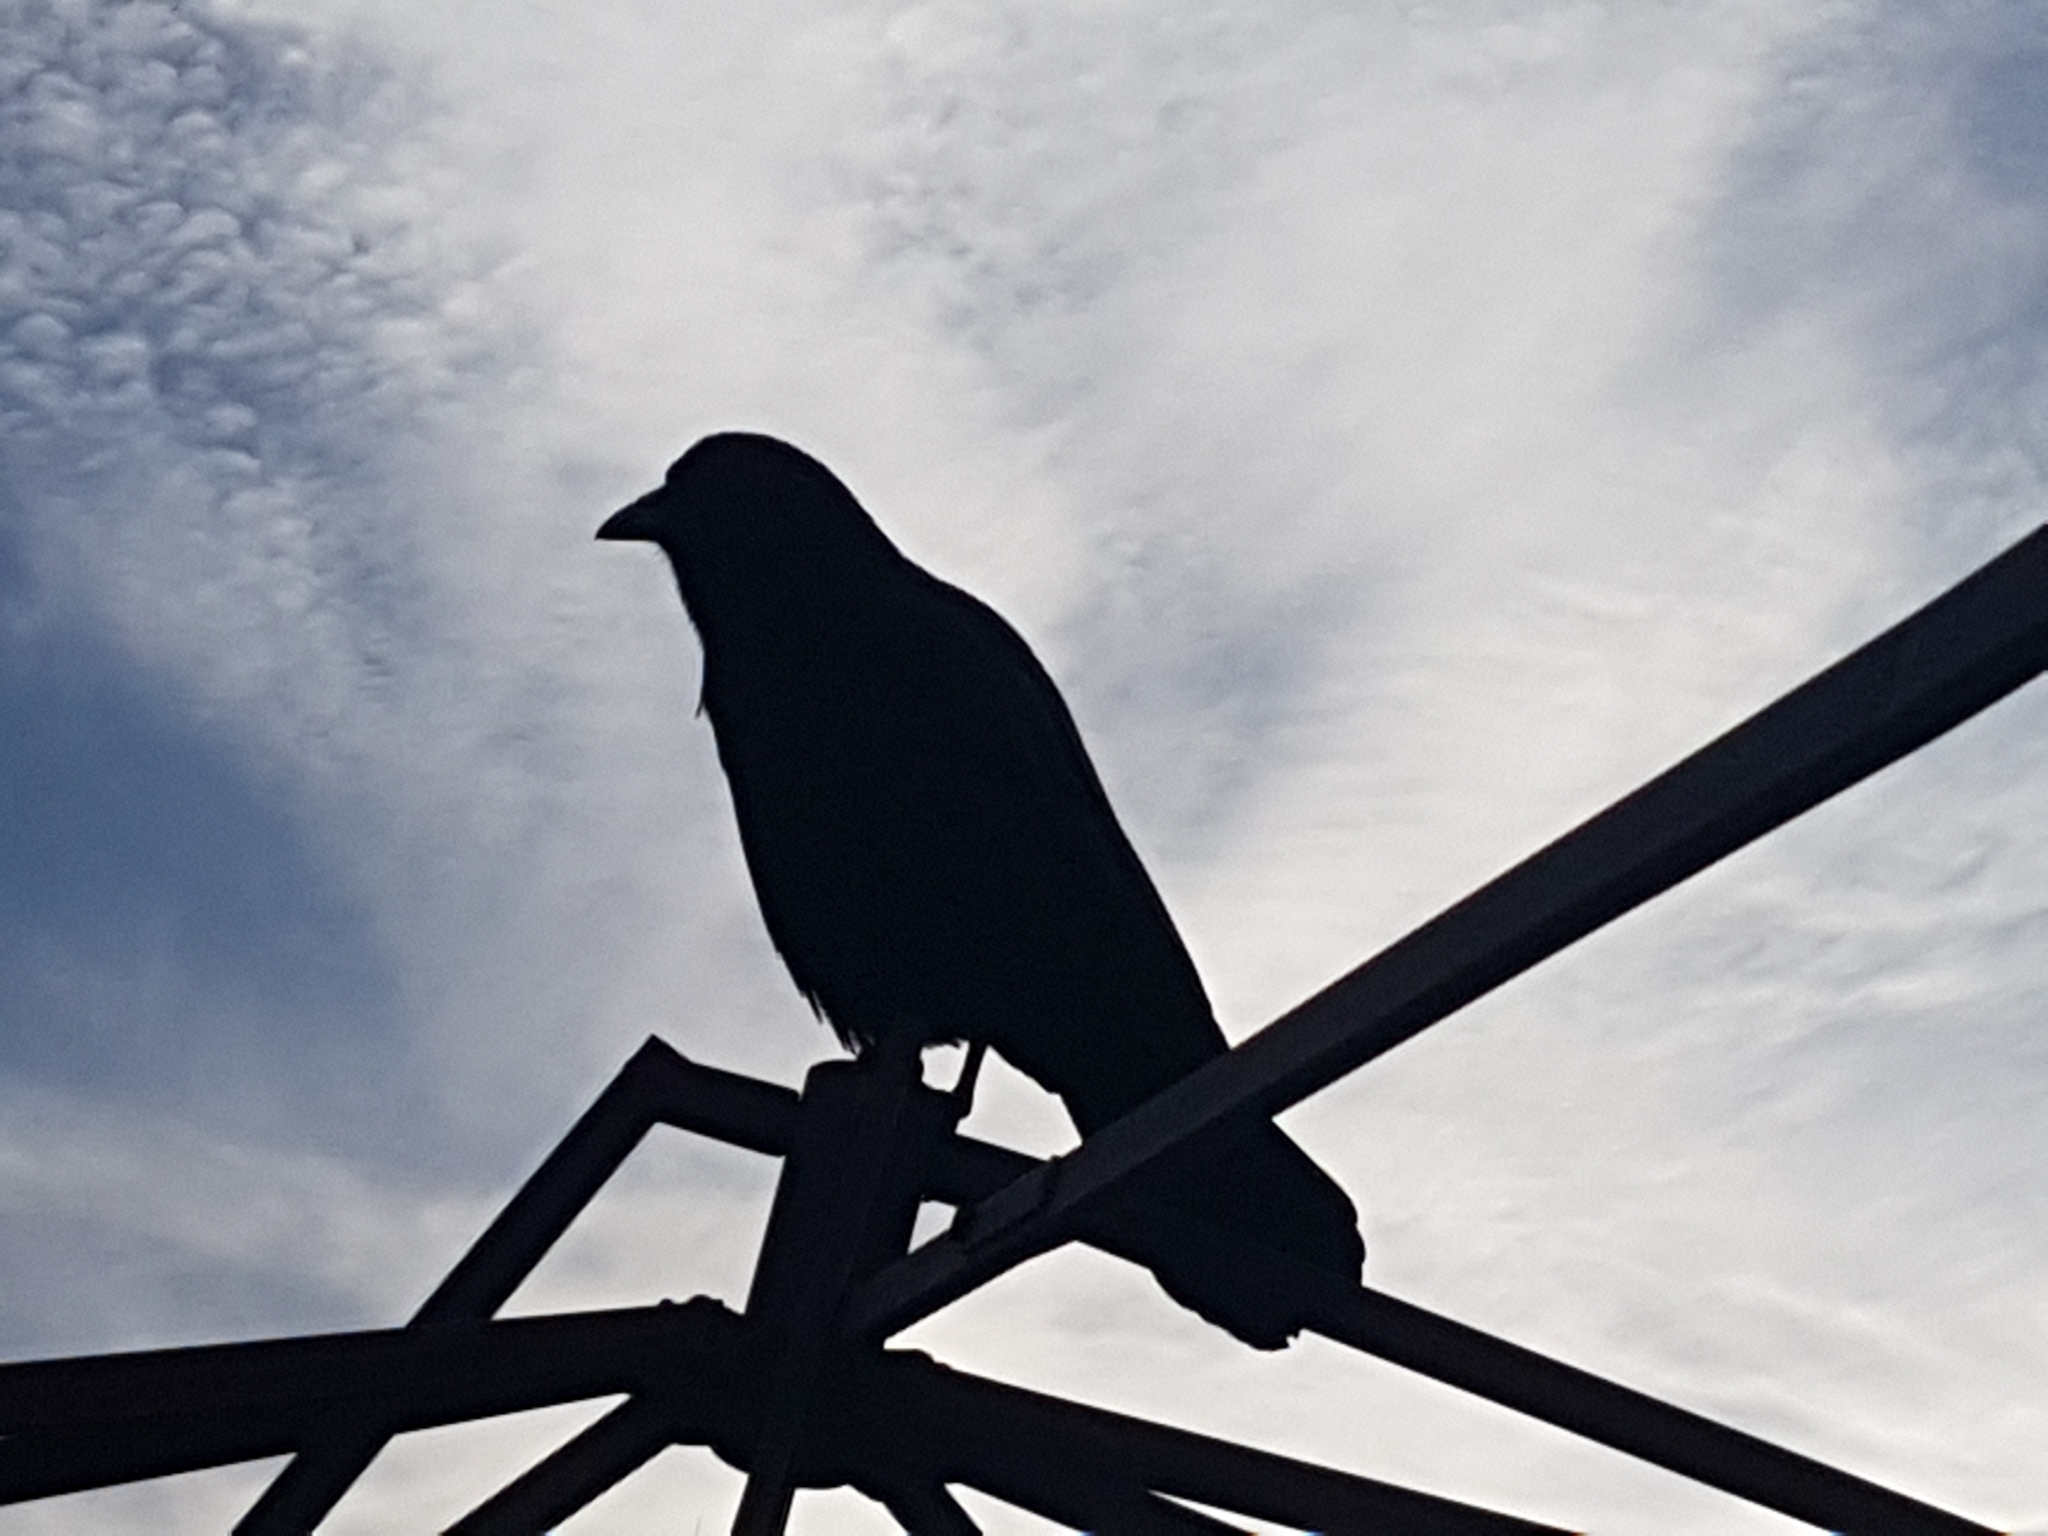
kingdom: Animalia
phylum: Chordata
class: Aves
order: Passeriformes
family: Corvidae
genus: Corvus
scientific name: Corvus brachyrhynchos
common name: American crow
